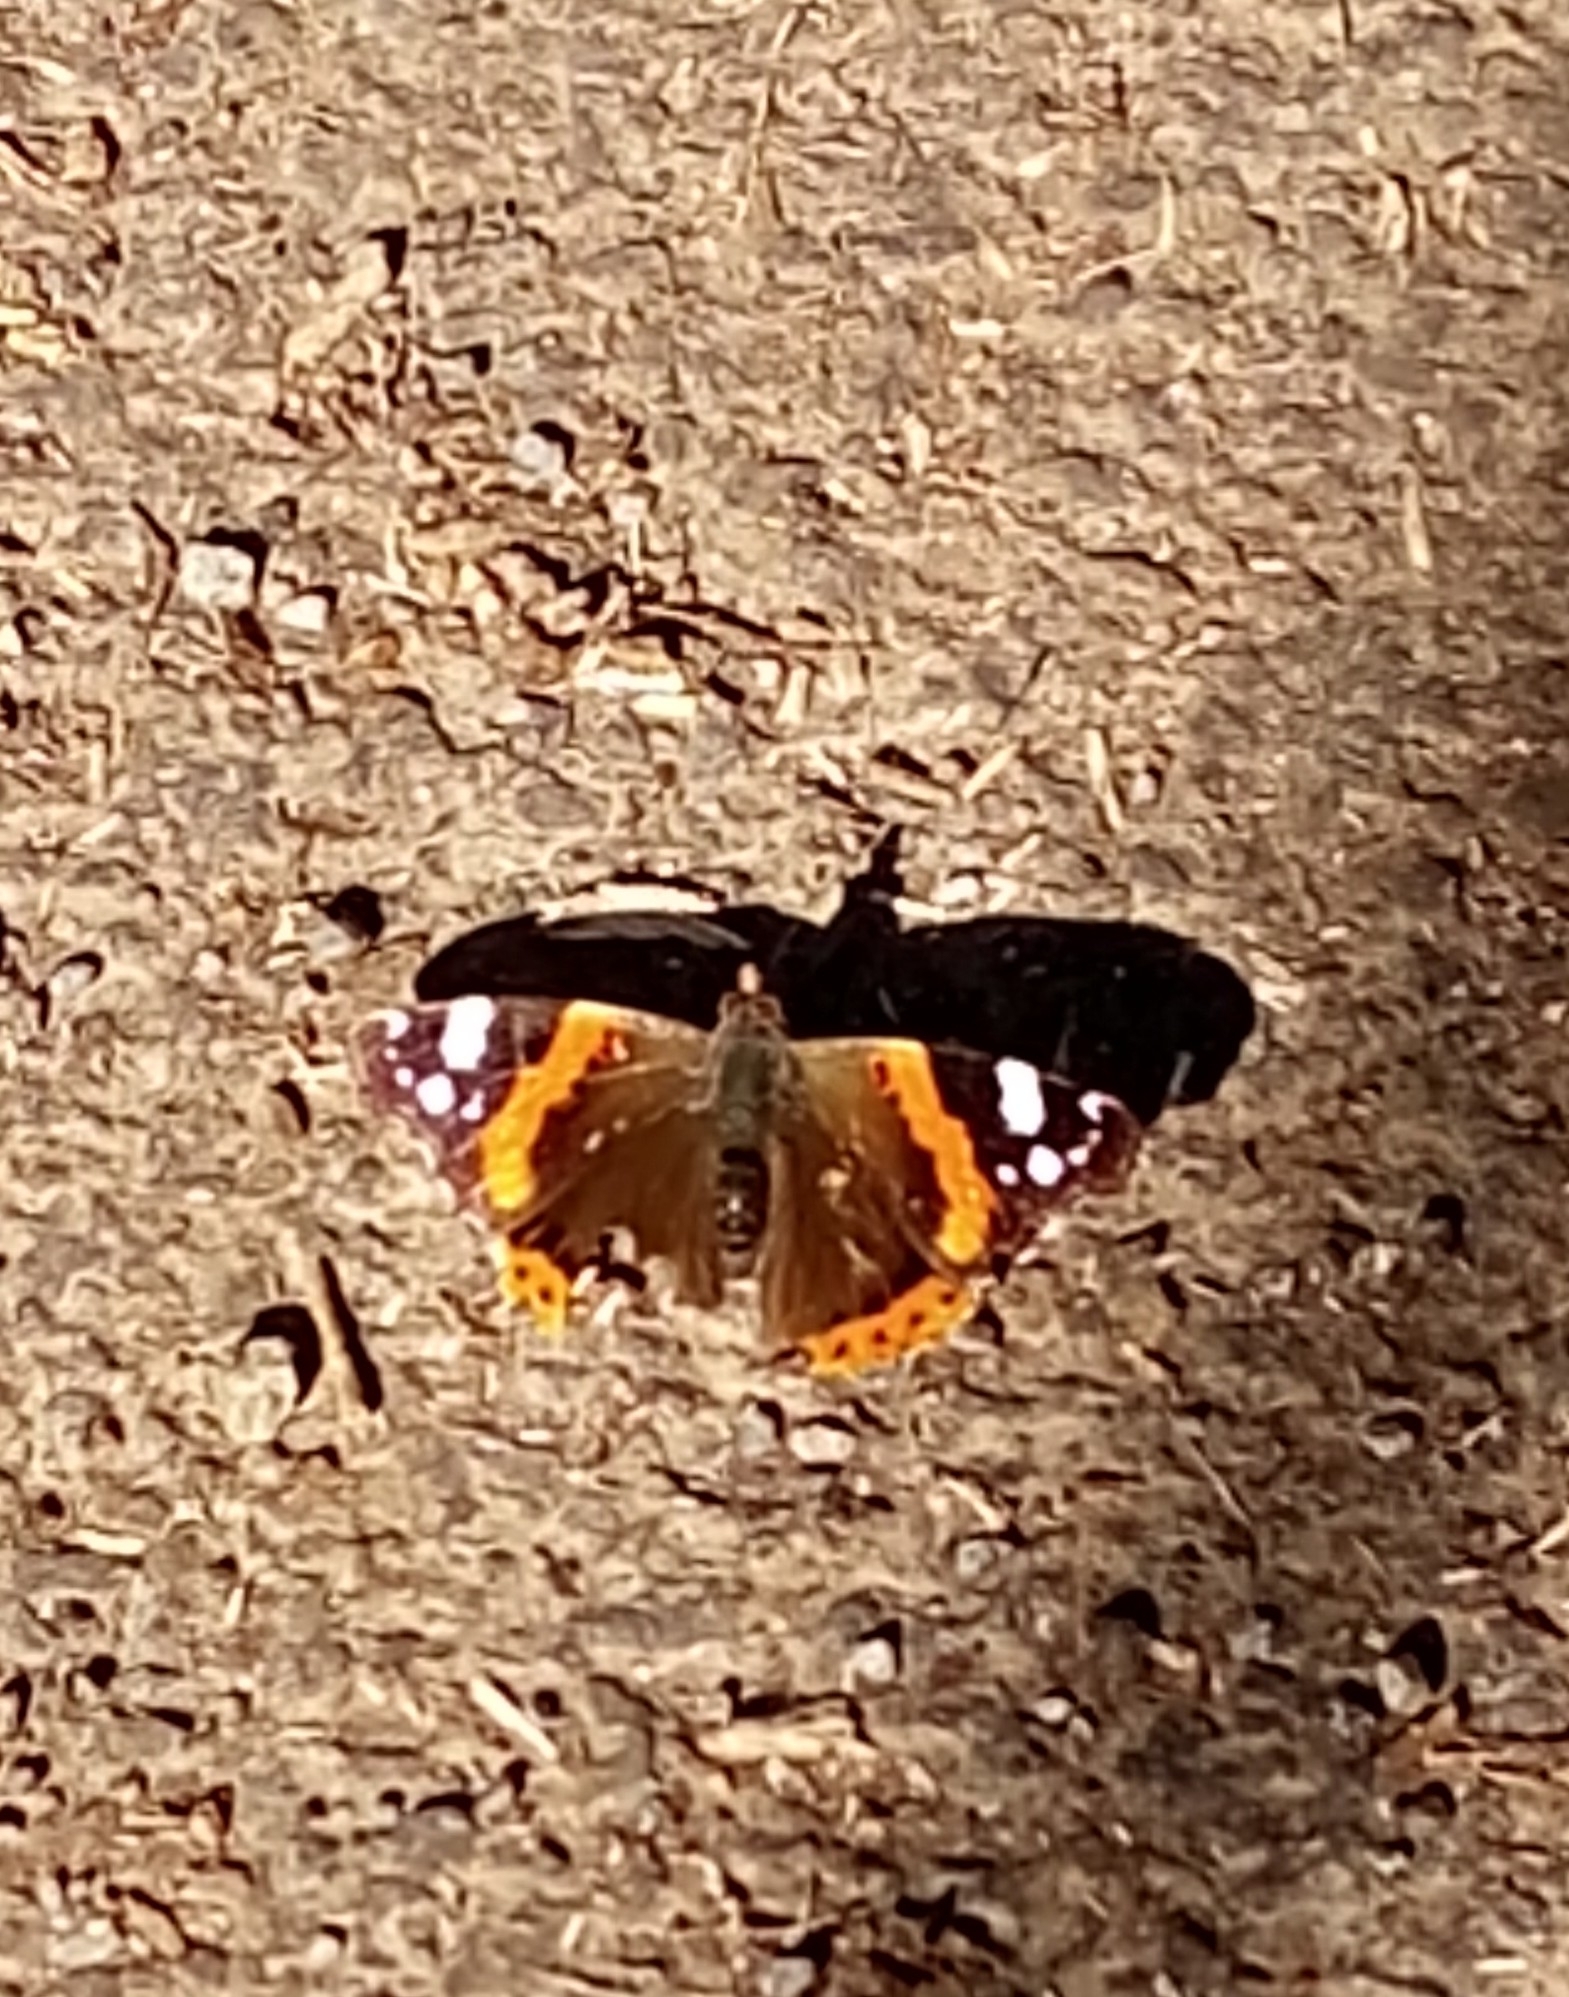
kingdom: Animalia
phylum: Arthropoda
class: Insecta
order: Lepidoptera
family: Nymphalidae
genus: Vanessa
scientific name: Vanessa atalanta
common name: Red admiral
